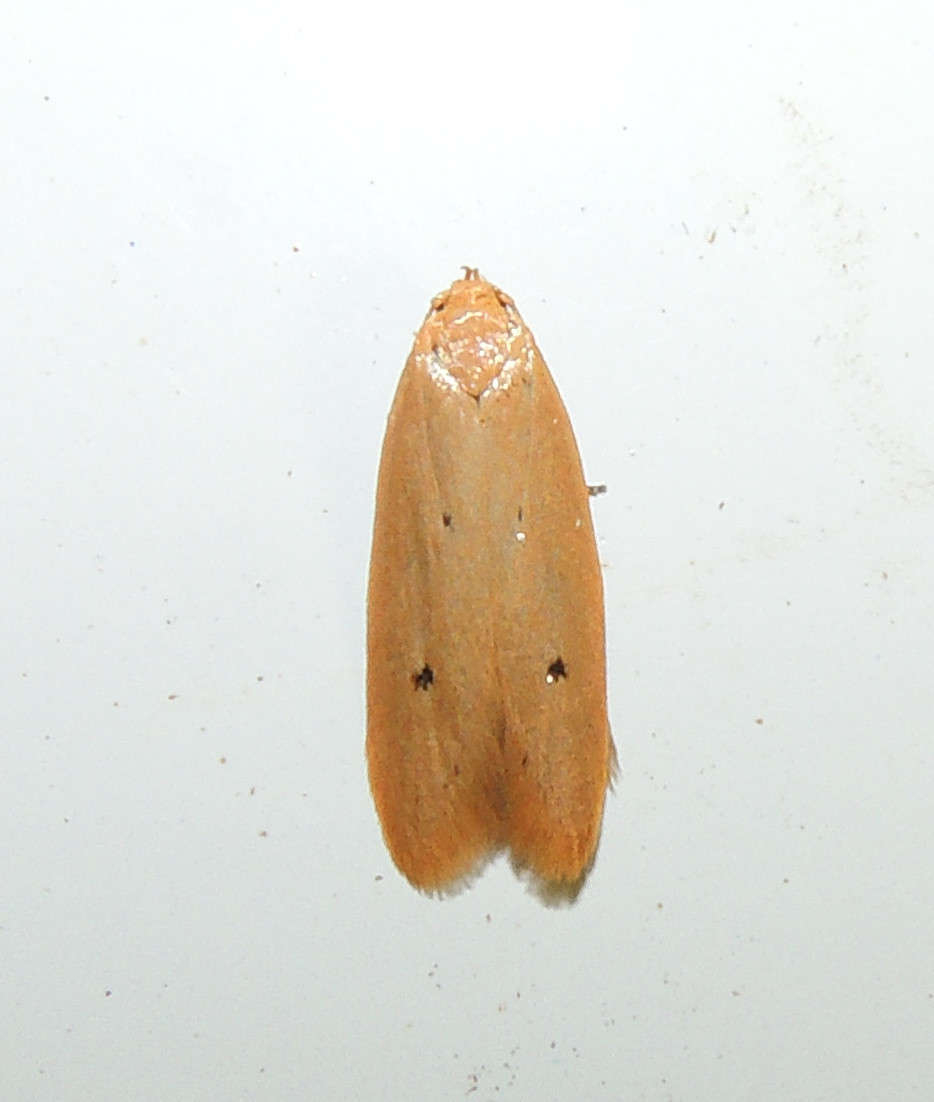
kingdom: Animalia
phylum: Arthropoda
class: Insecta
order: Lepidoptera
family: Oecophoridae
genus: Platoloncha
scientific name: Platoloncha psamathina
